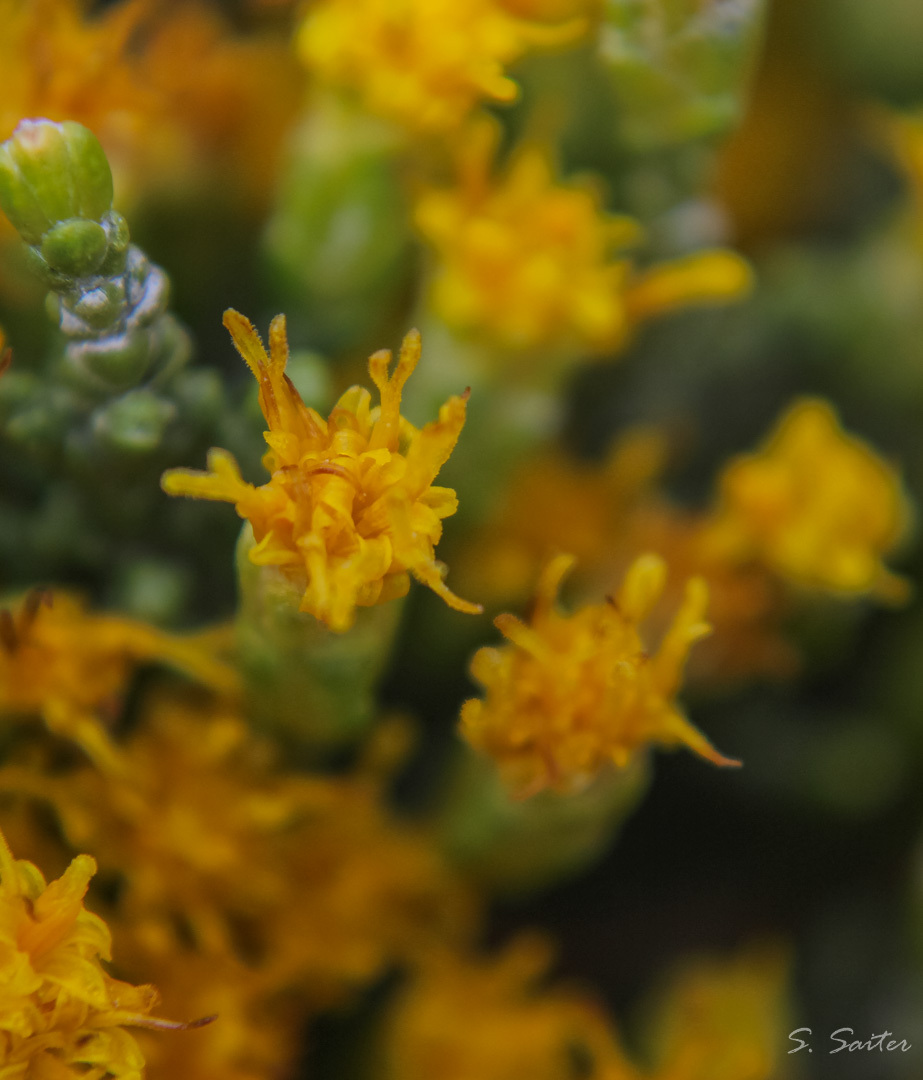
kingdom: Plantae
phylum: Tracheophyta
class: Magnoliopsida
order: Asterales
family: Asteraceae
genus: Lepidophyllum
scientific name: Lepidophyllum cupressiforme
